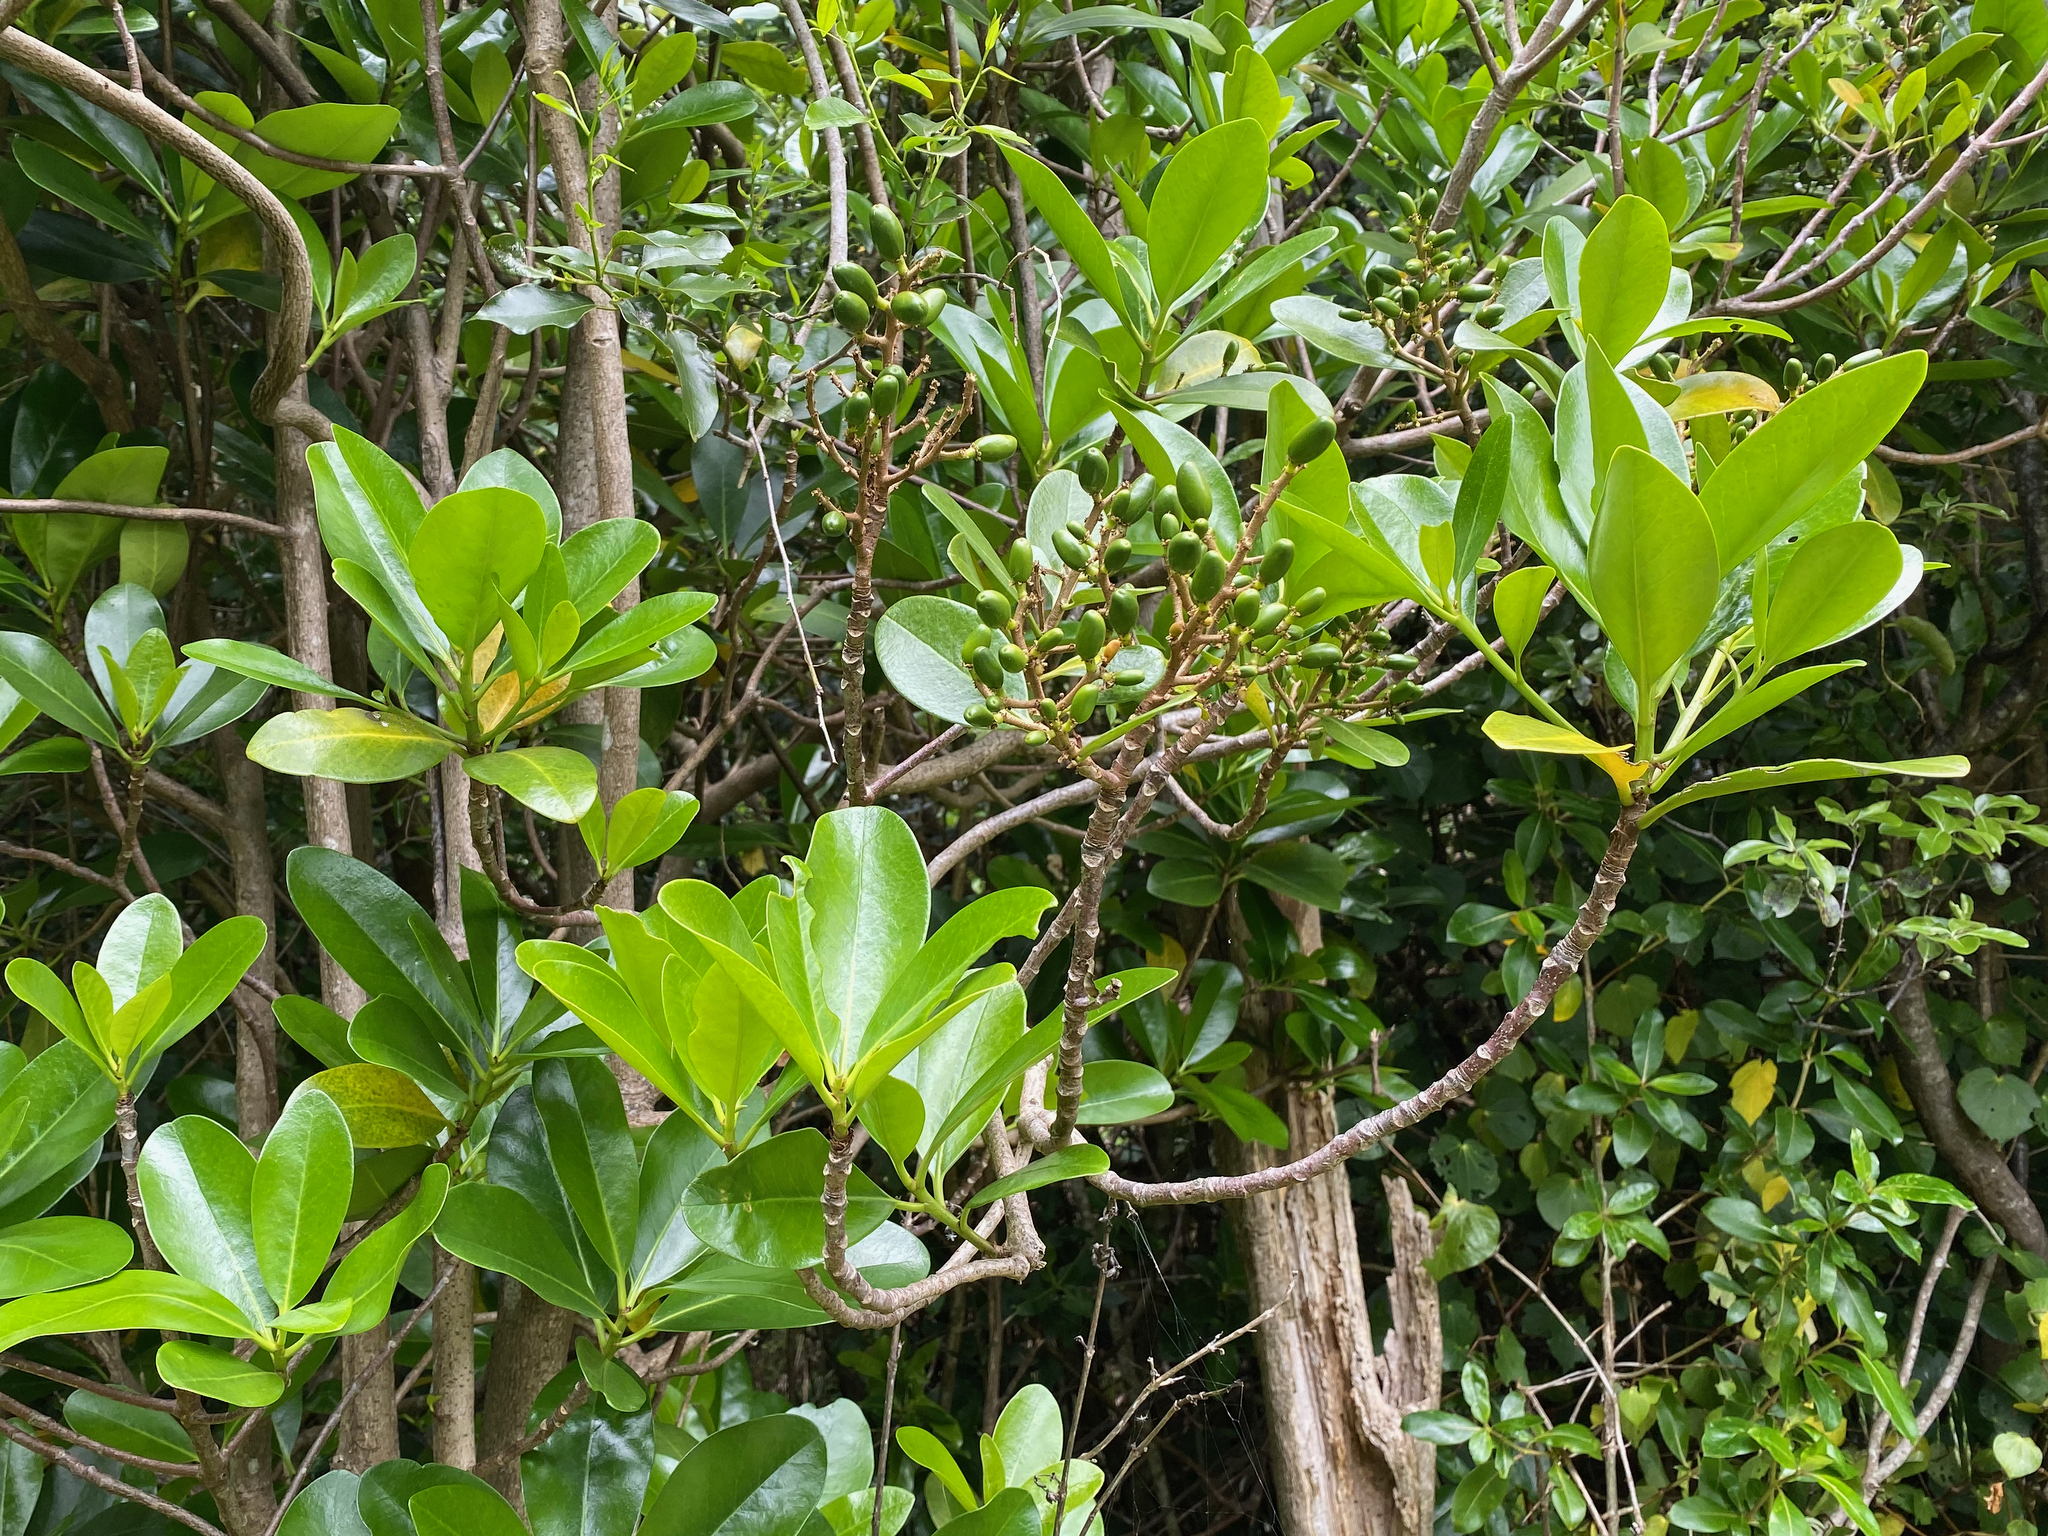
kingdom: Plantae
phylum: Tracheophyta
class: Magnoliopsida
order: Cucurbitales
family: Corynocarpaceae
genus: Corynocarpus
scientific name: Corynocarpus laevigatus
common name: New zealand laurel
